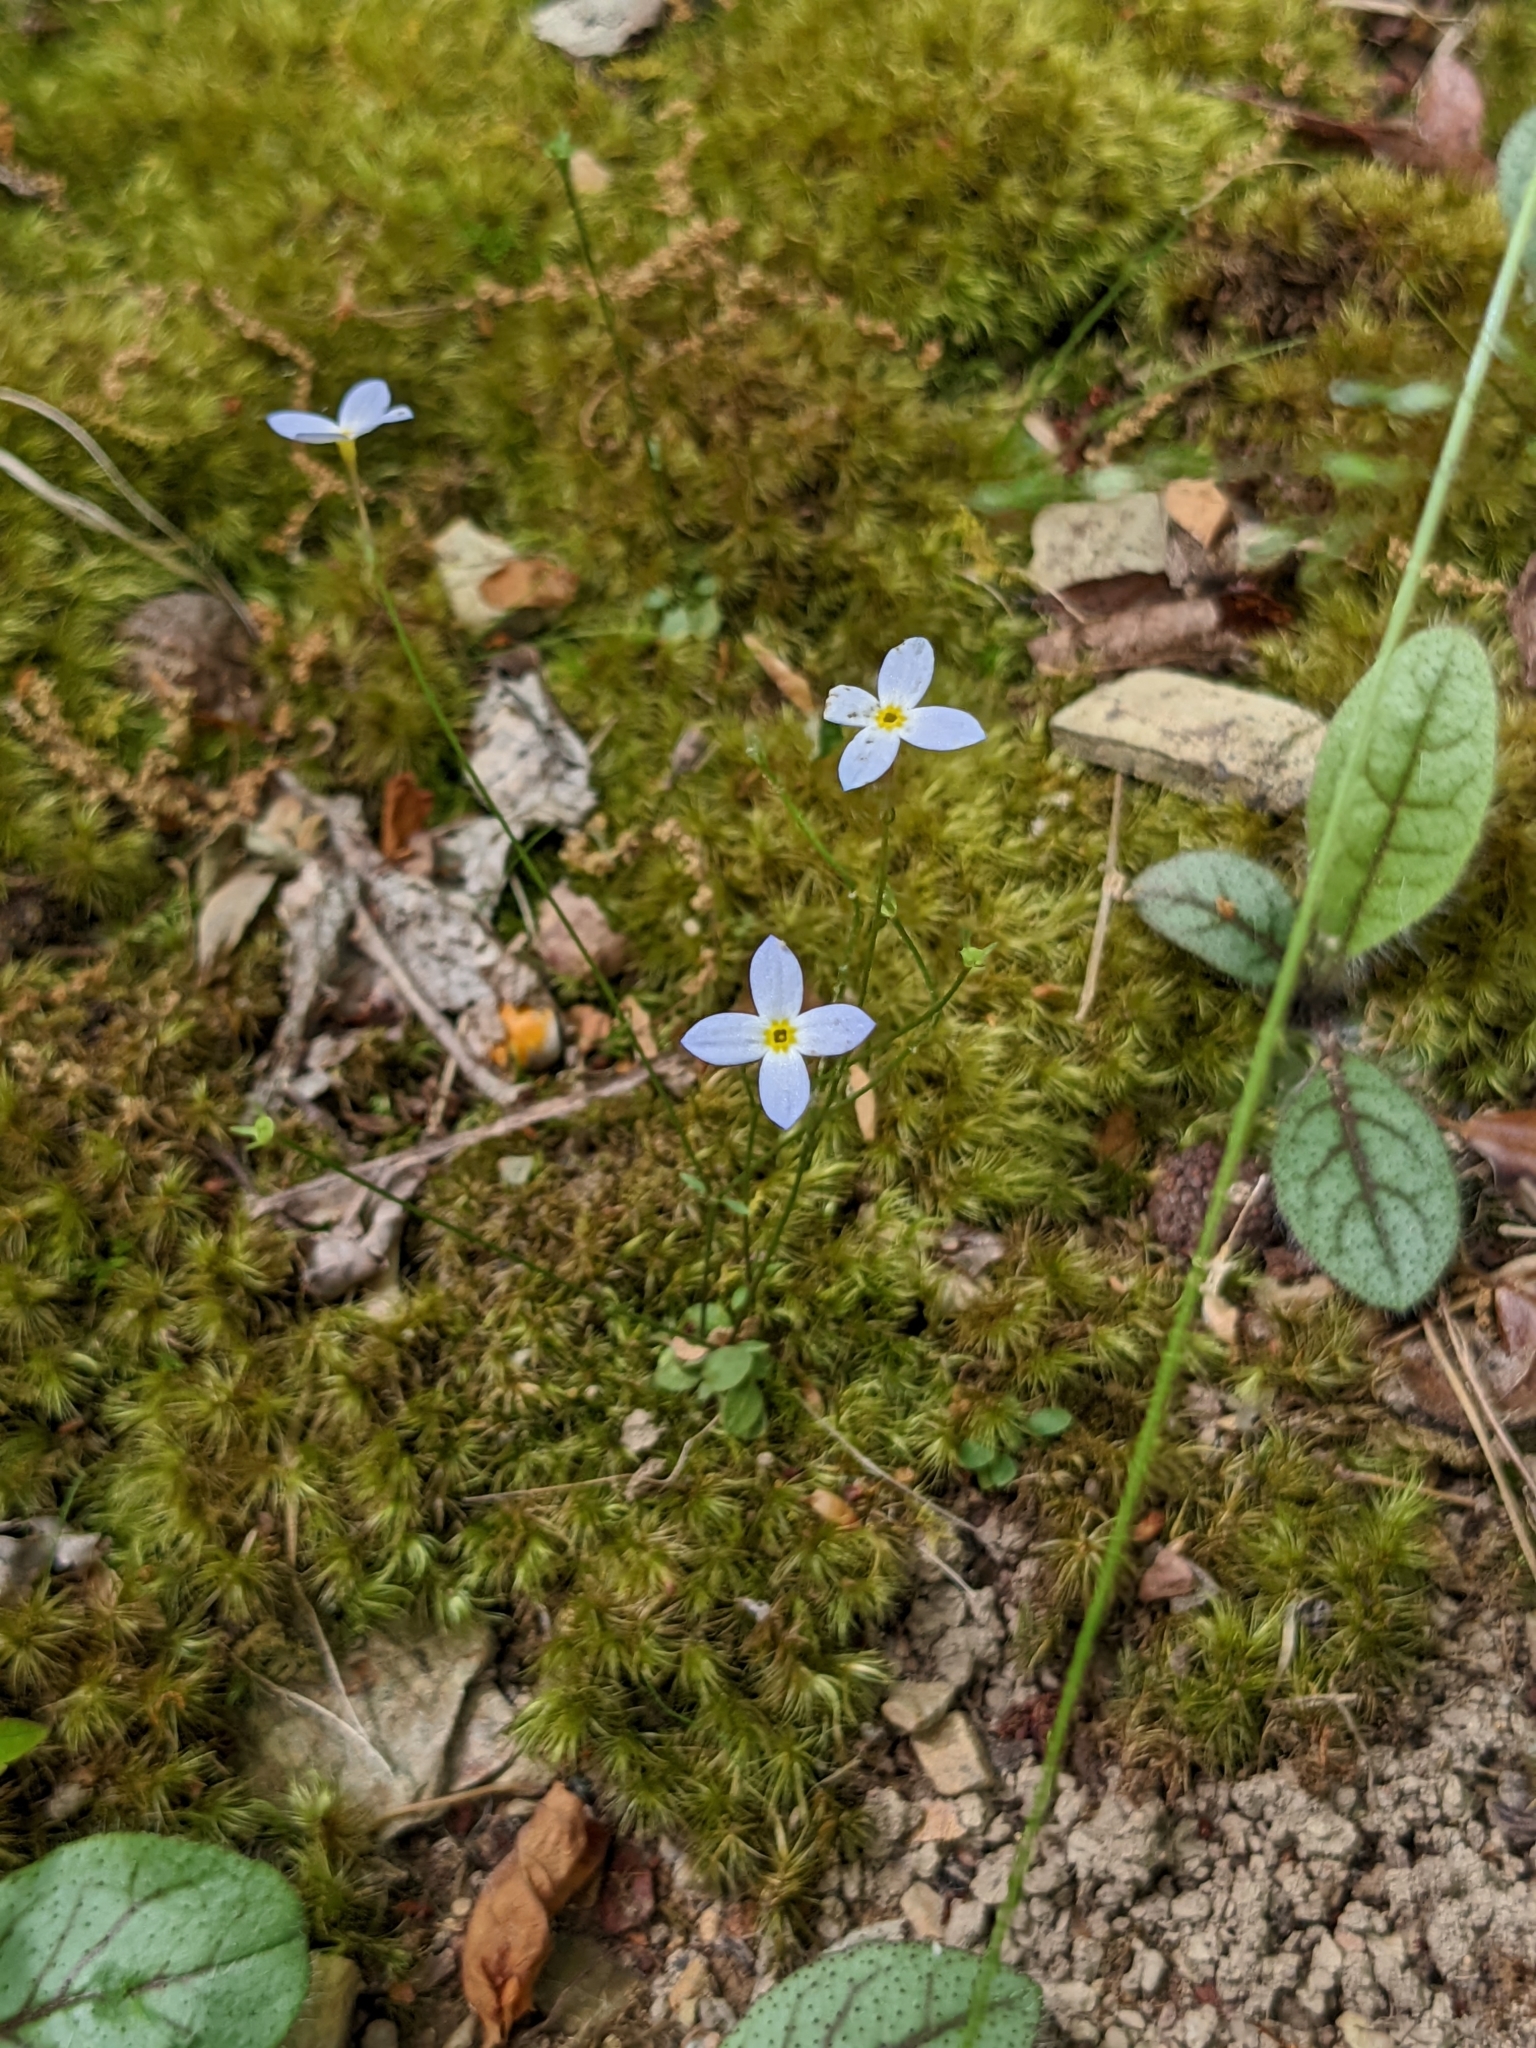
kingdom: Plantae
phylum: Tracheophyta
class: Magnoliopsida
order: Gentianales
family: Rubiaceae
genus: Houstonia
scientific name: Houstonia caerulea
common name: Bluets
